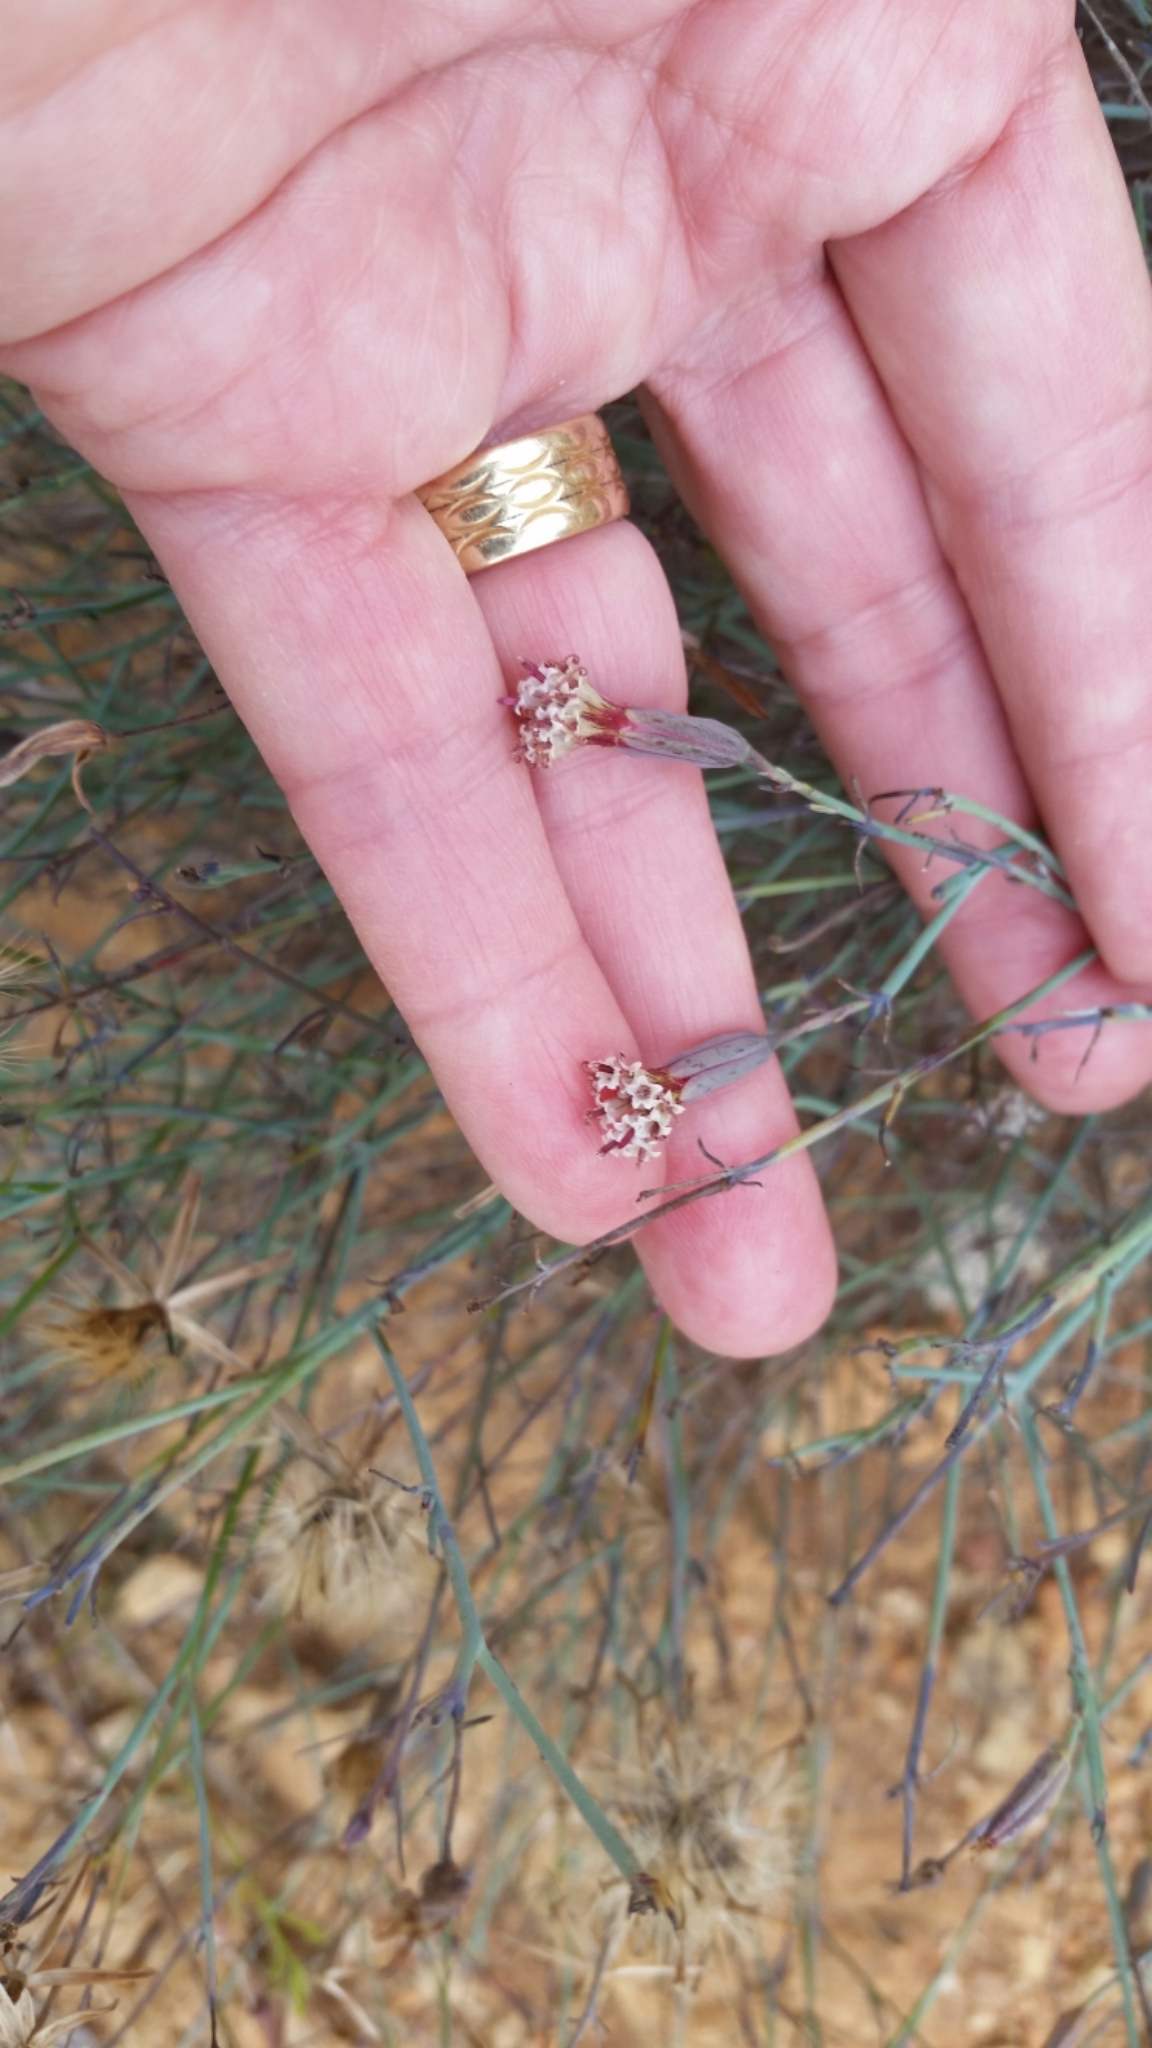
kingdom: Plantae
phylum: Tracheophyta
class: Magnoliopsida
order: Asterales
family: Asteraceae
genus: Porophyllum
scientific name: Porophyllum gracile
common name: Odora
